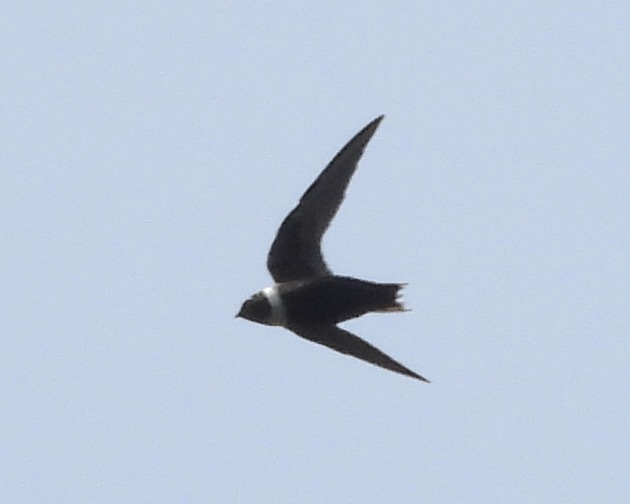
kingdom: Animalia
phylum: Chordata
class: Aves
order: Apodiformes
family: Apodidae
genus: Streptoprocne
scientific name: Streptoprocne zonaris
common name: White-collared swift
